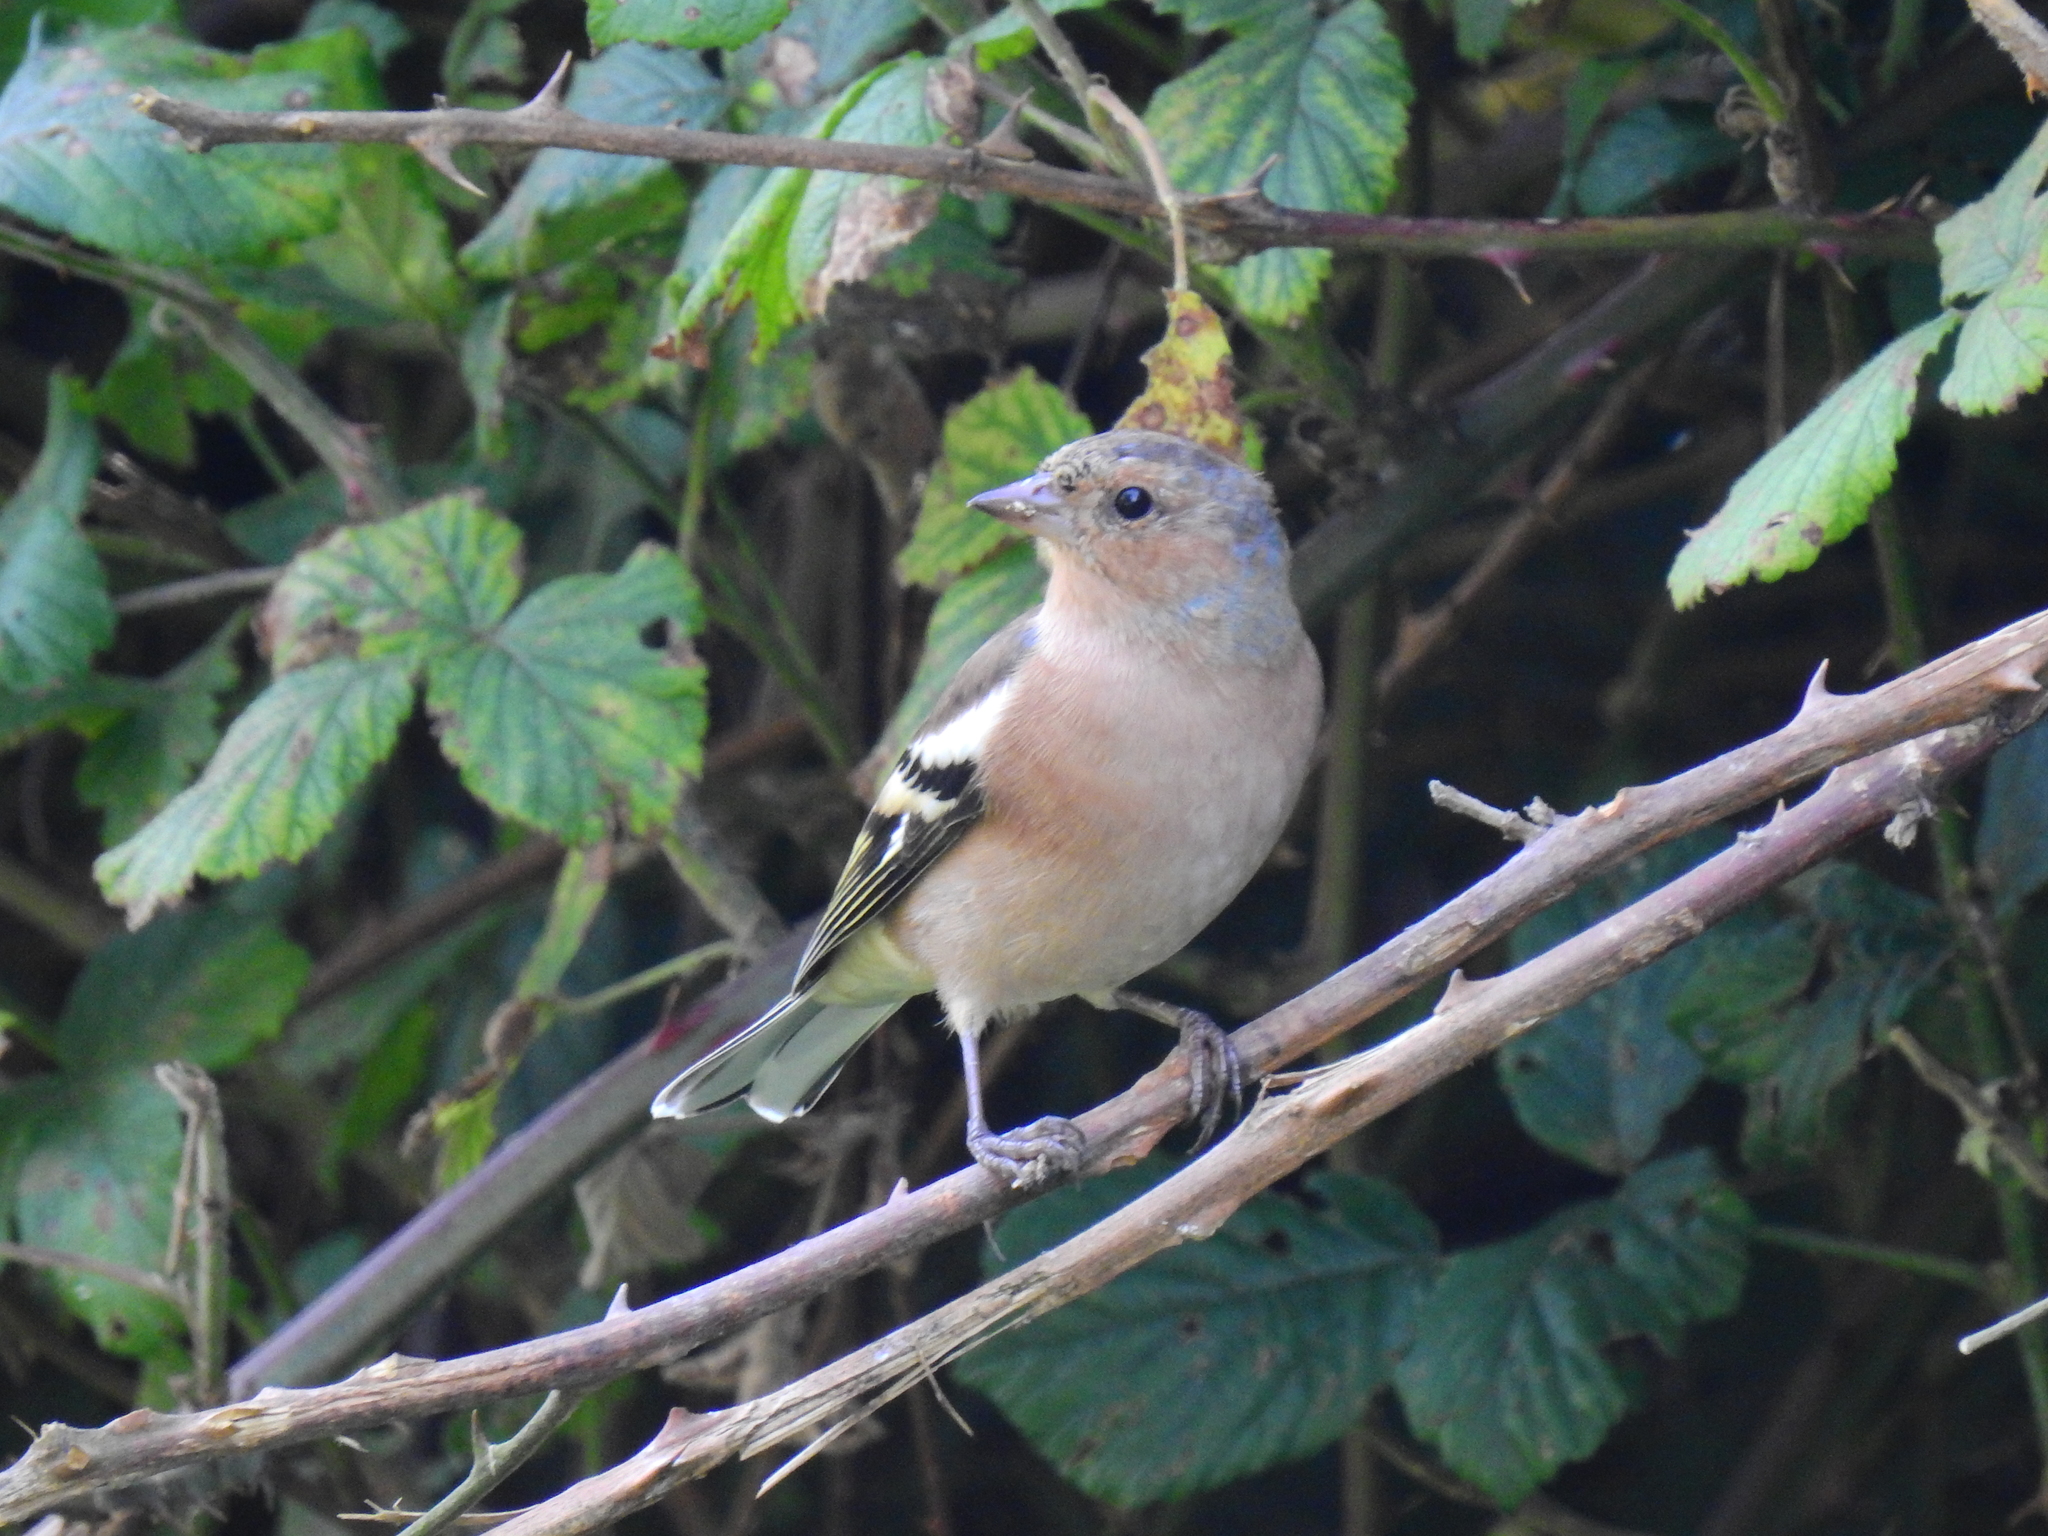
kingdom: Animalia
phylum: Chordata
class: Aves
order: Passeriformes
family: Fringillidae
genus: Fringilla
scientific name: Fringilla coelebs
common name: Common chaffinch
